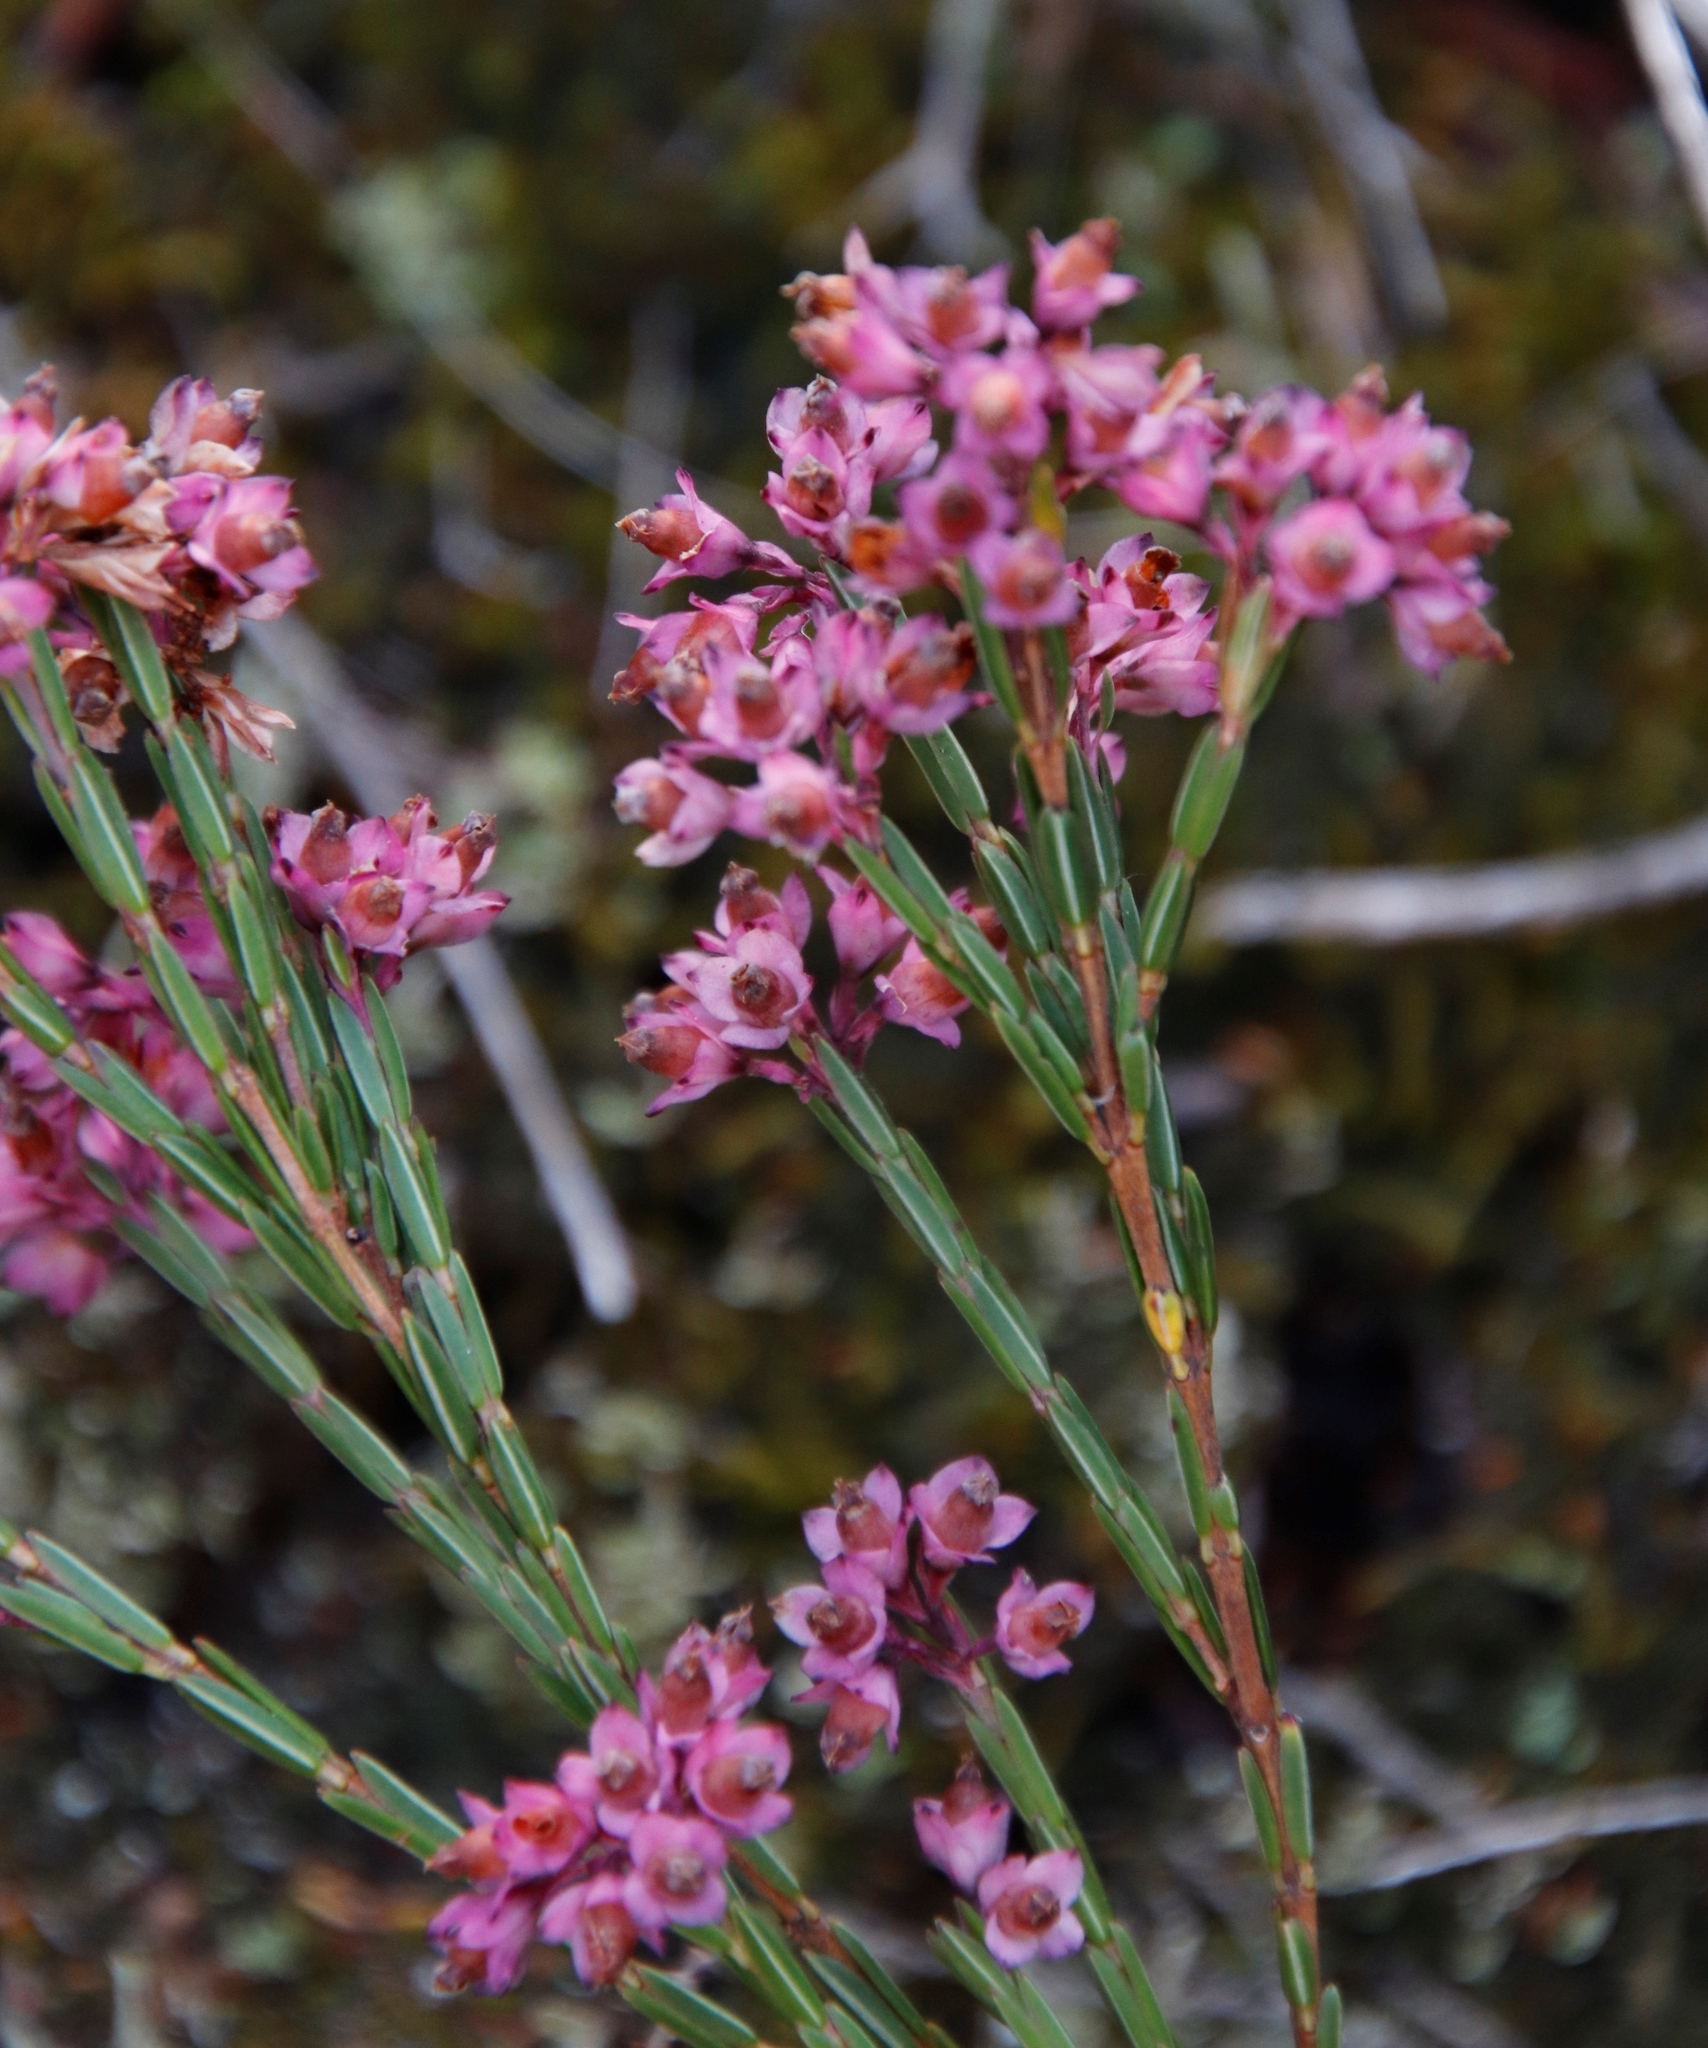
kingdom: Plantae
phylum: Tracheophyta
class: Magnoliopsida
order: Ericales
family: Ericaceae
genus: Erica
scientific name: Erica corifolia
